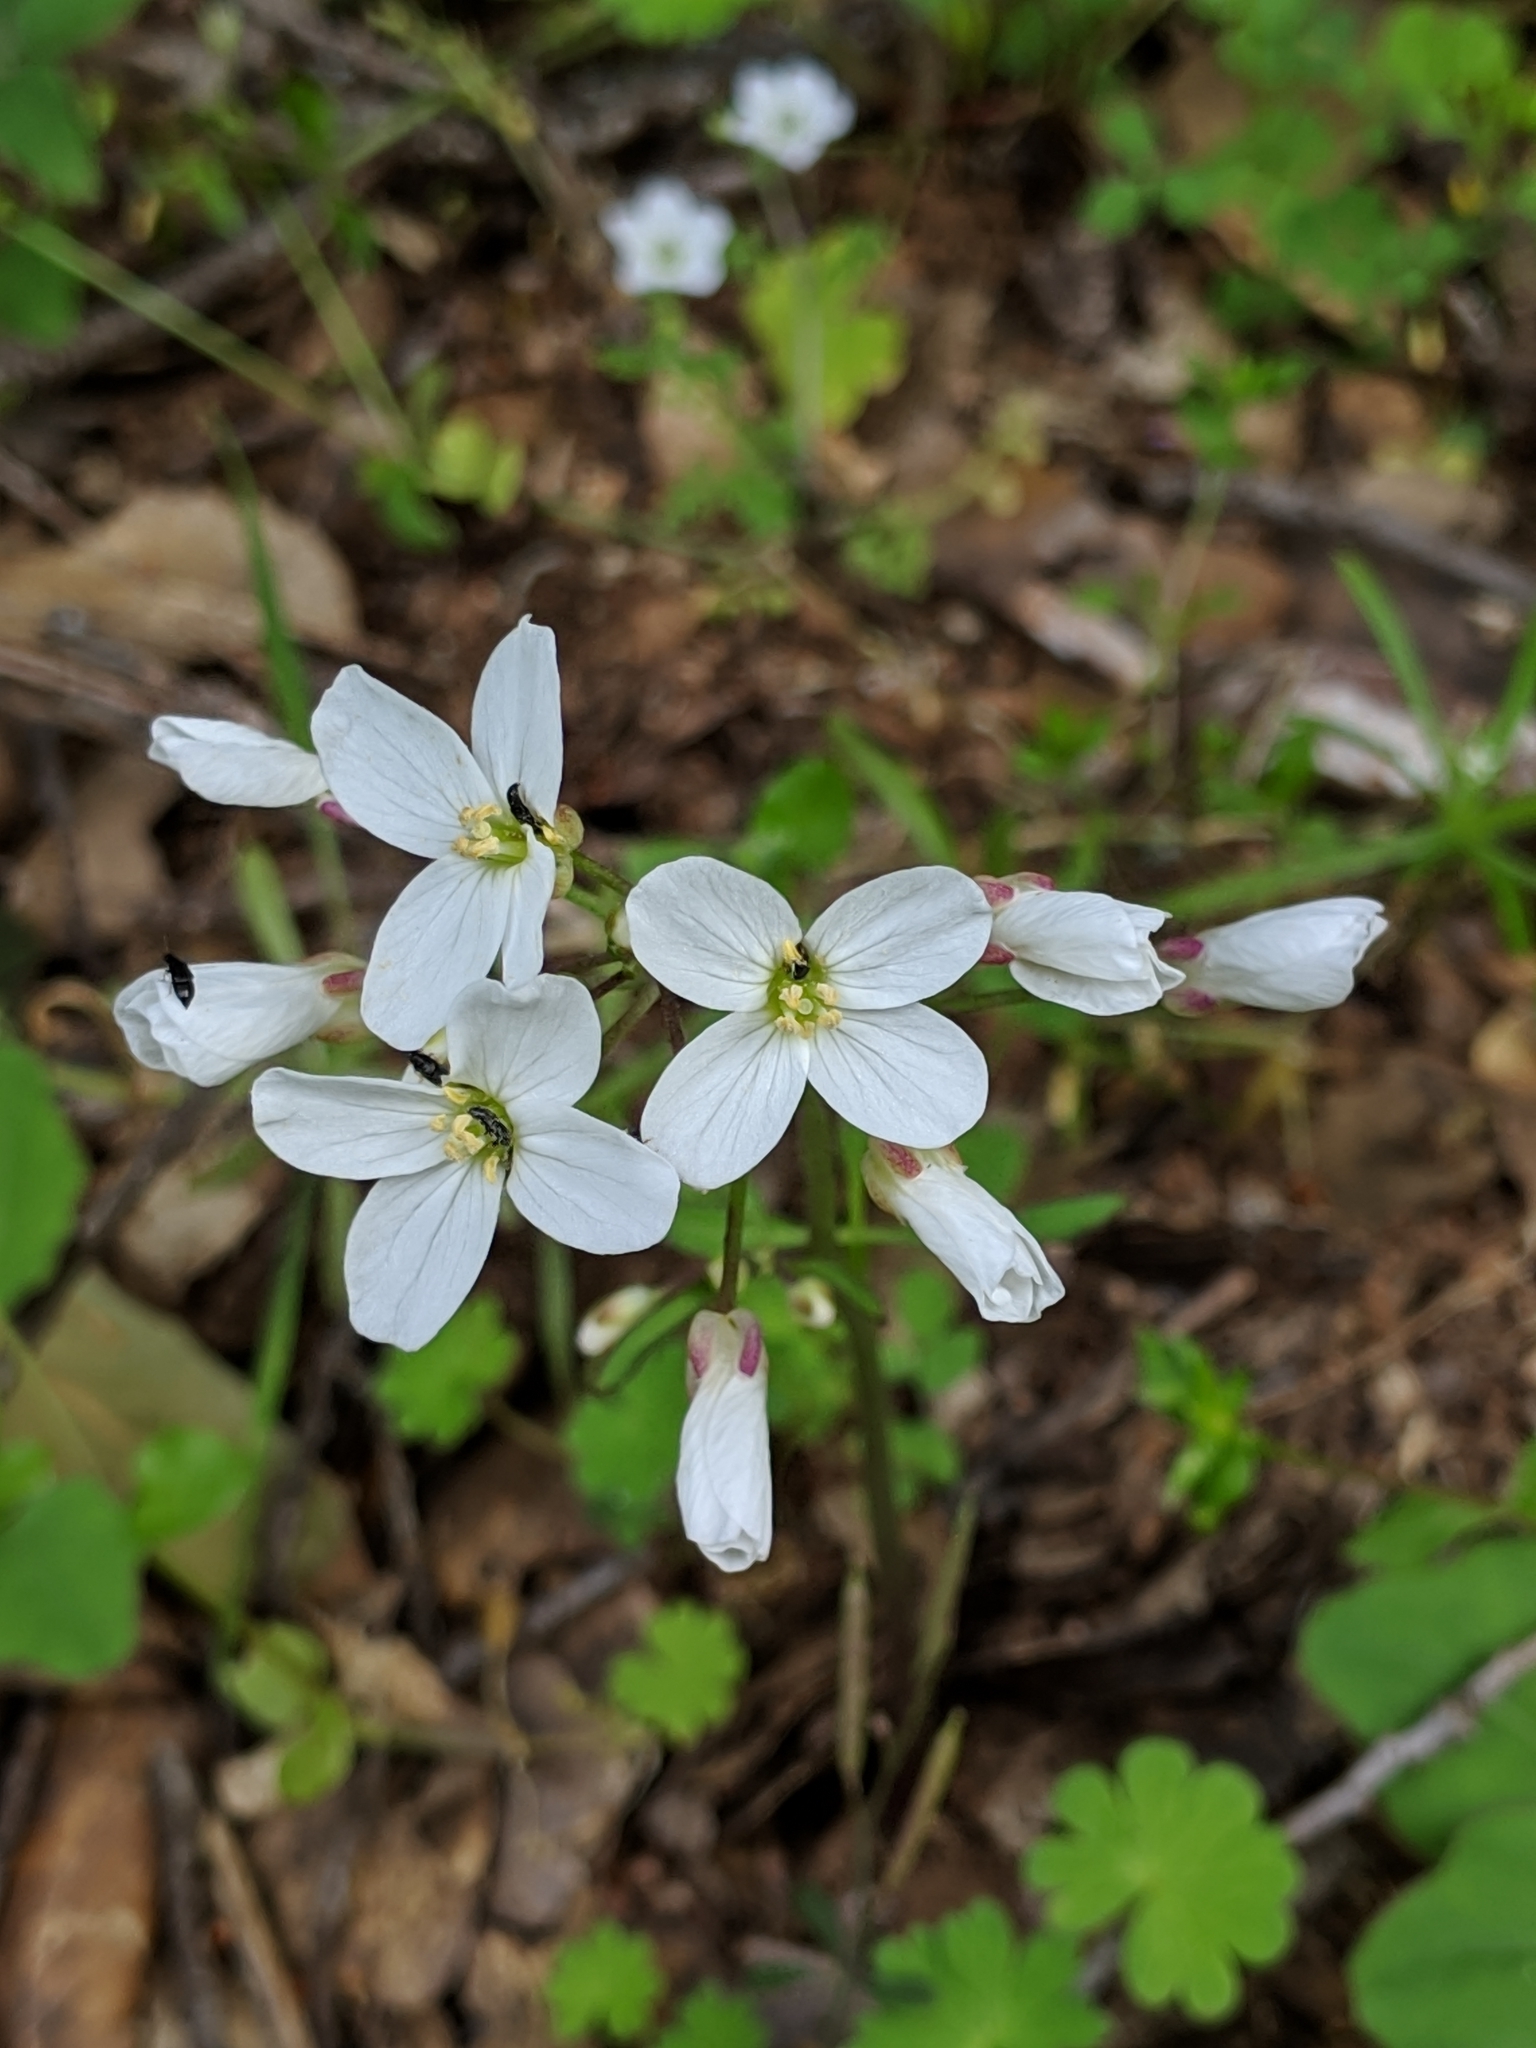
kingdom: Plantae
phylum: Tracheophyta
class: Magnoliopsida
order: Brassicales
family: Brassicaceae
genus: Cardamine
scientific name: Cardamine californica
